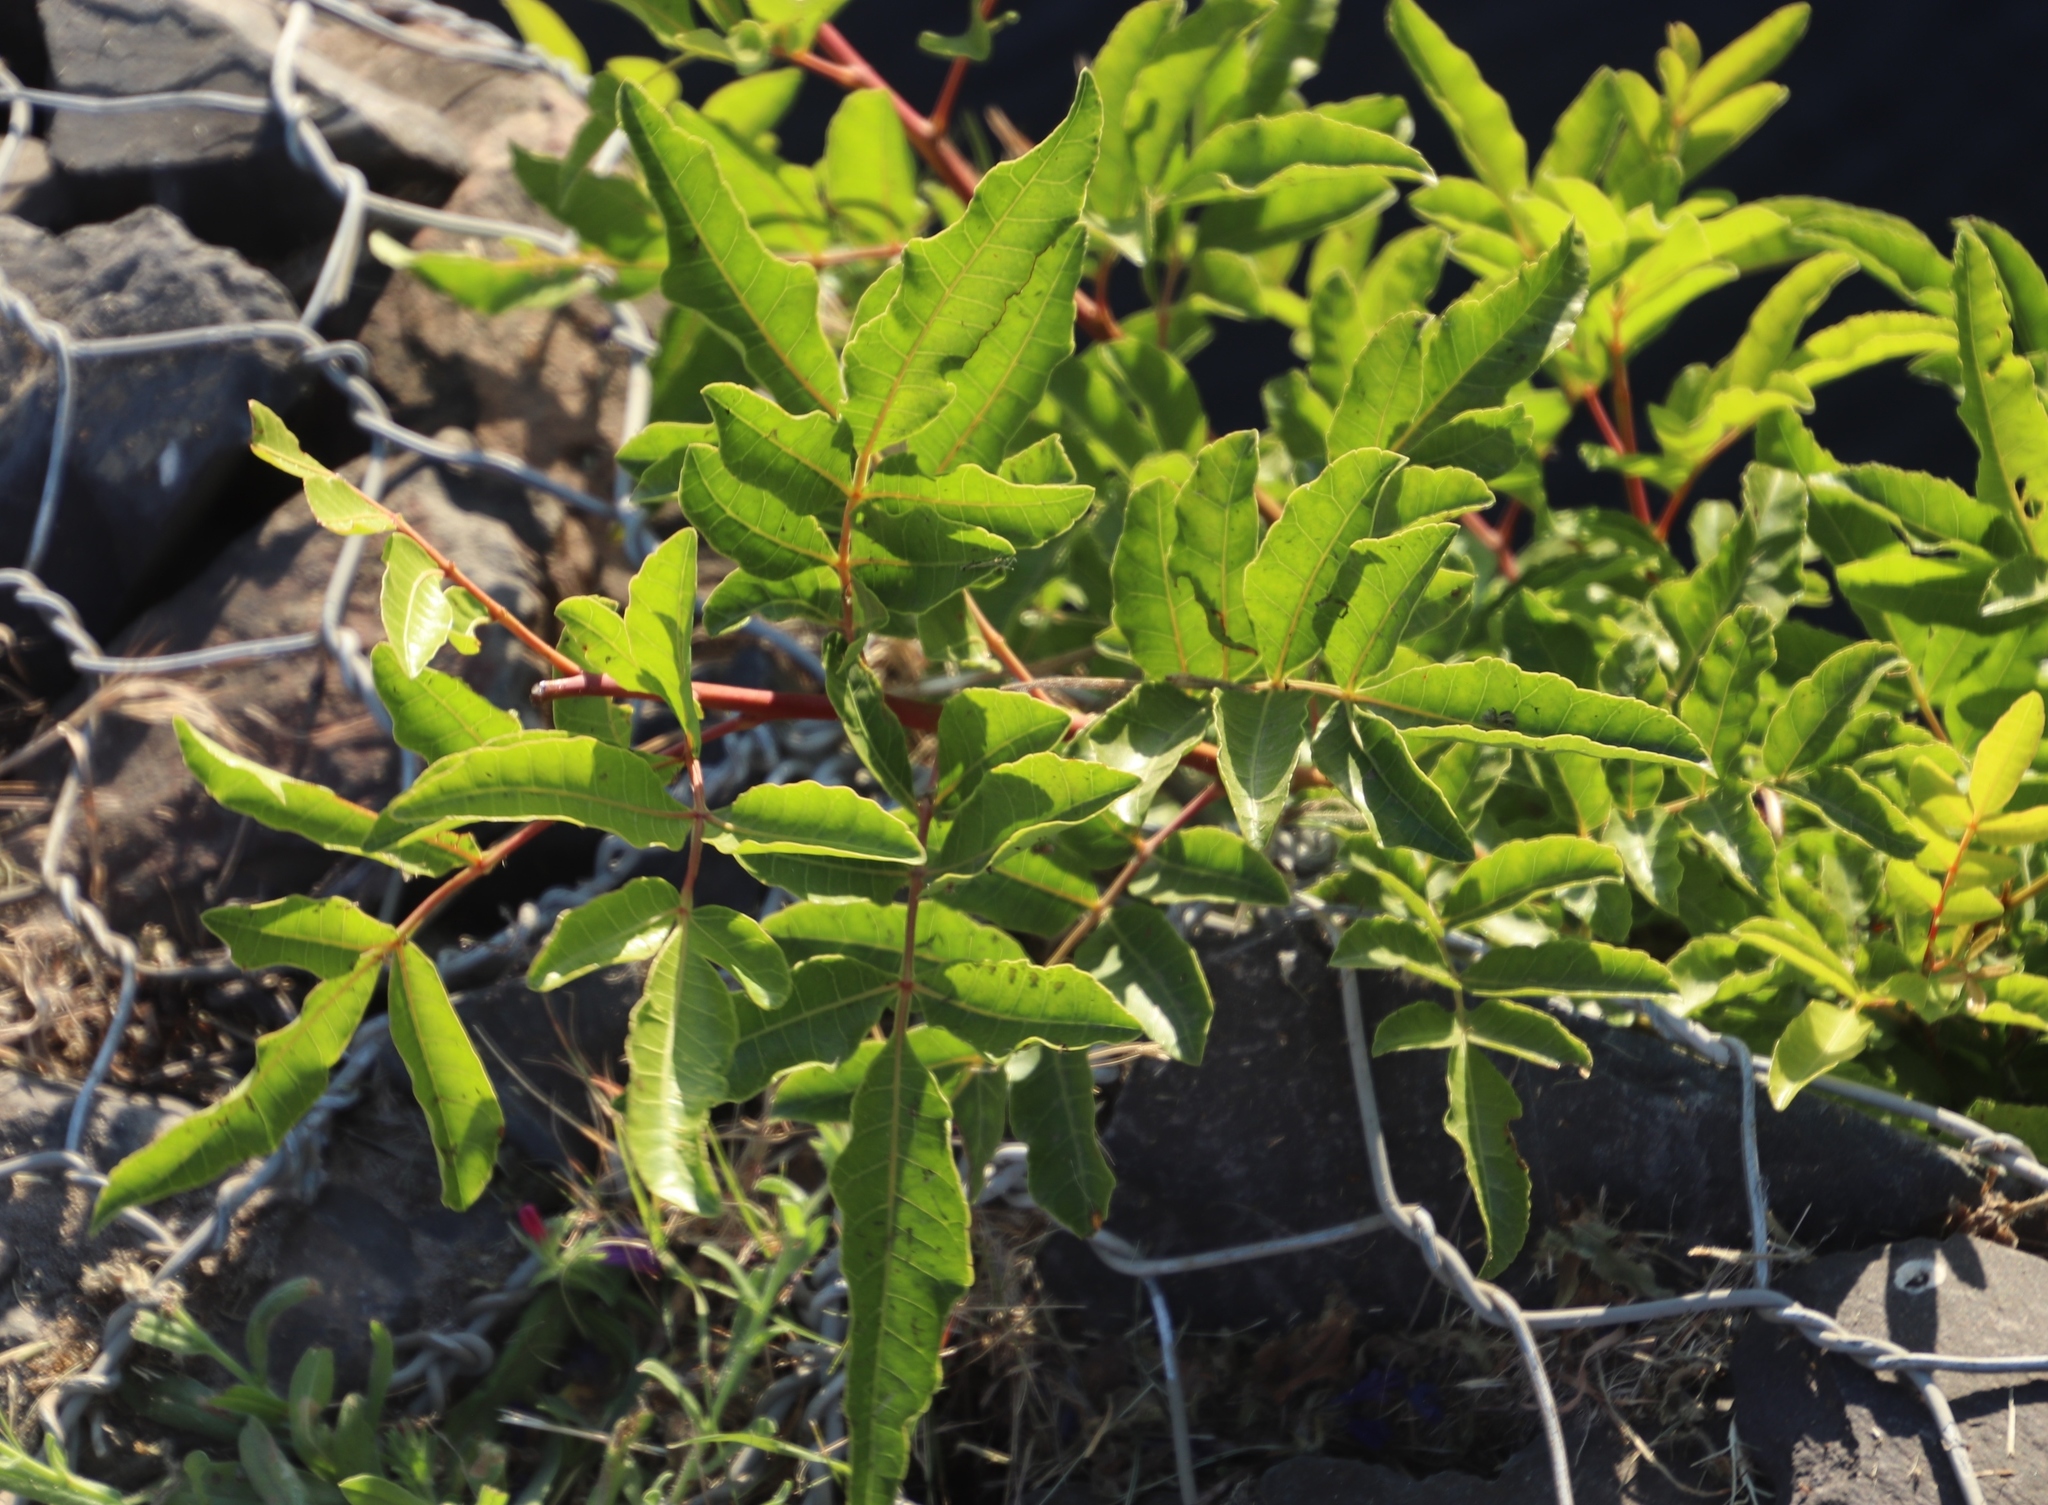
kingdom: Plantae
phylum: Tracheophyta
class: Magnoliopsida
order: Sapindales
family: Anacardiaceae
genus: Schinus
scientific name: Schinus terebinthifolia
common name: Brazilian peppertree
